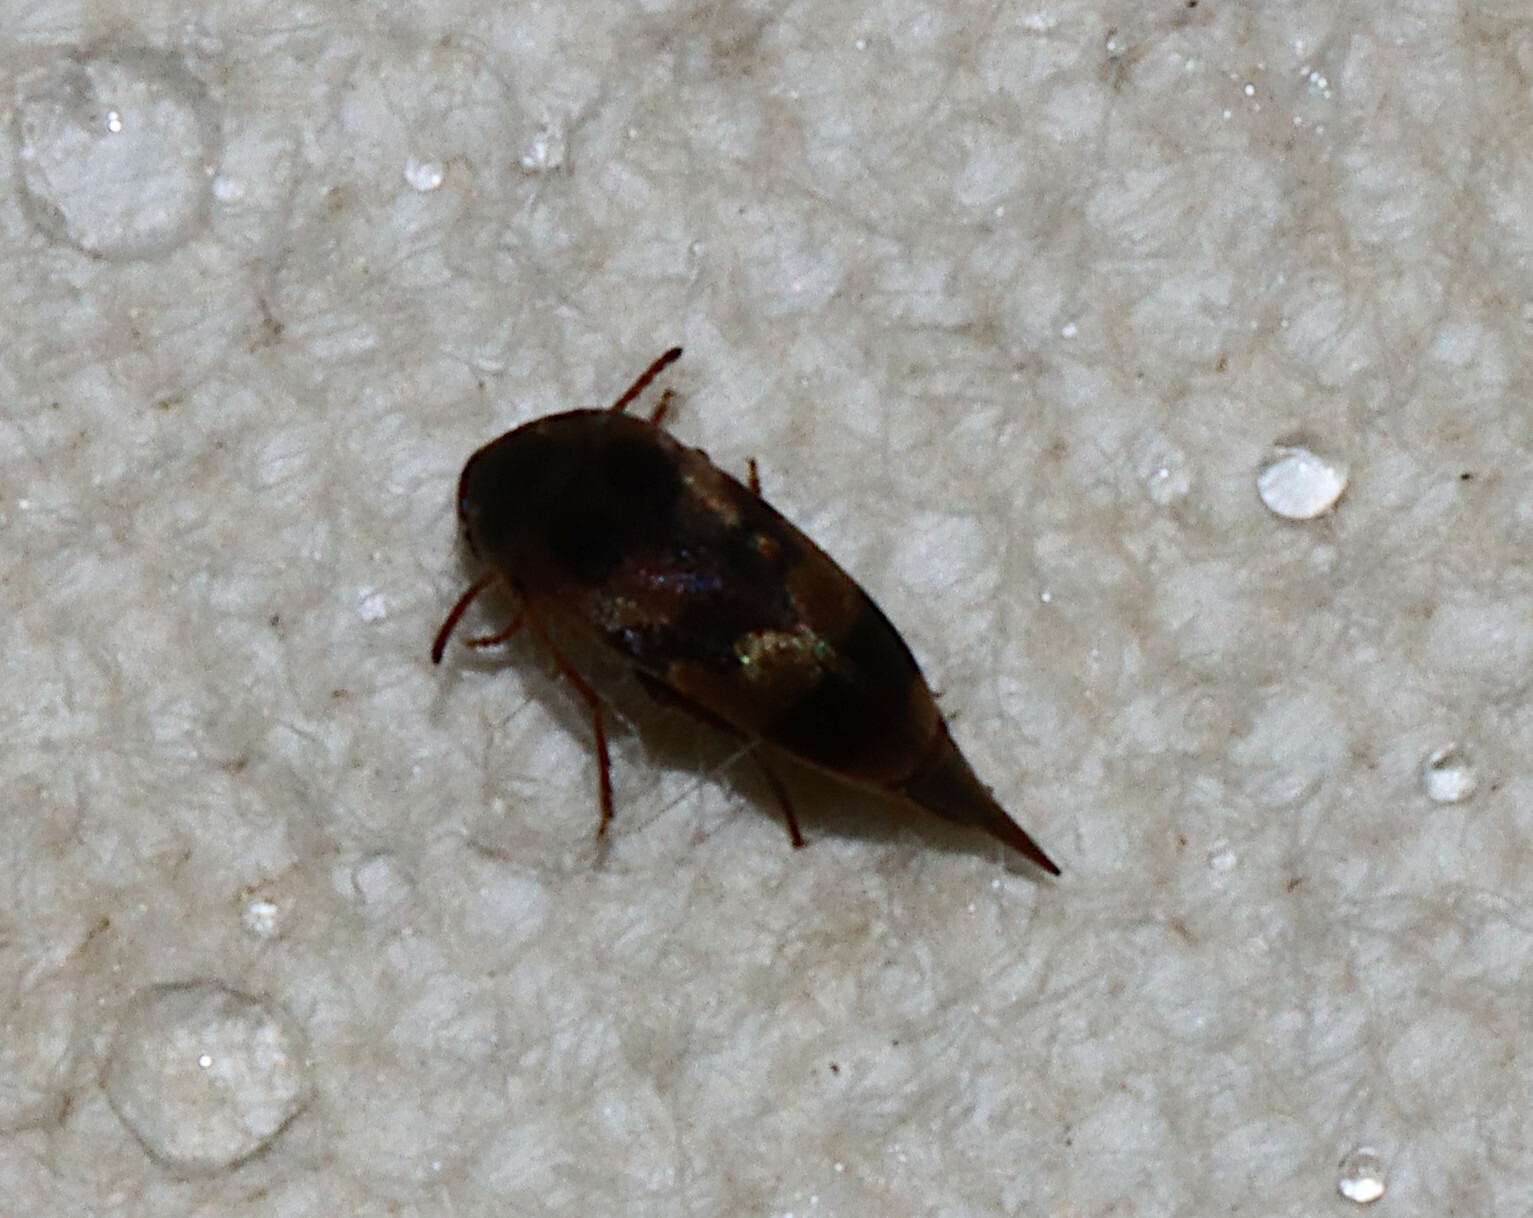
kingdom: Animalia
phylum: Arthropoda
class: Insecta
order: Coleoptera
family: Mordellidae
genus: Falsomordellistena
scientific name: Falsomordellistena pubescens
